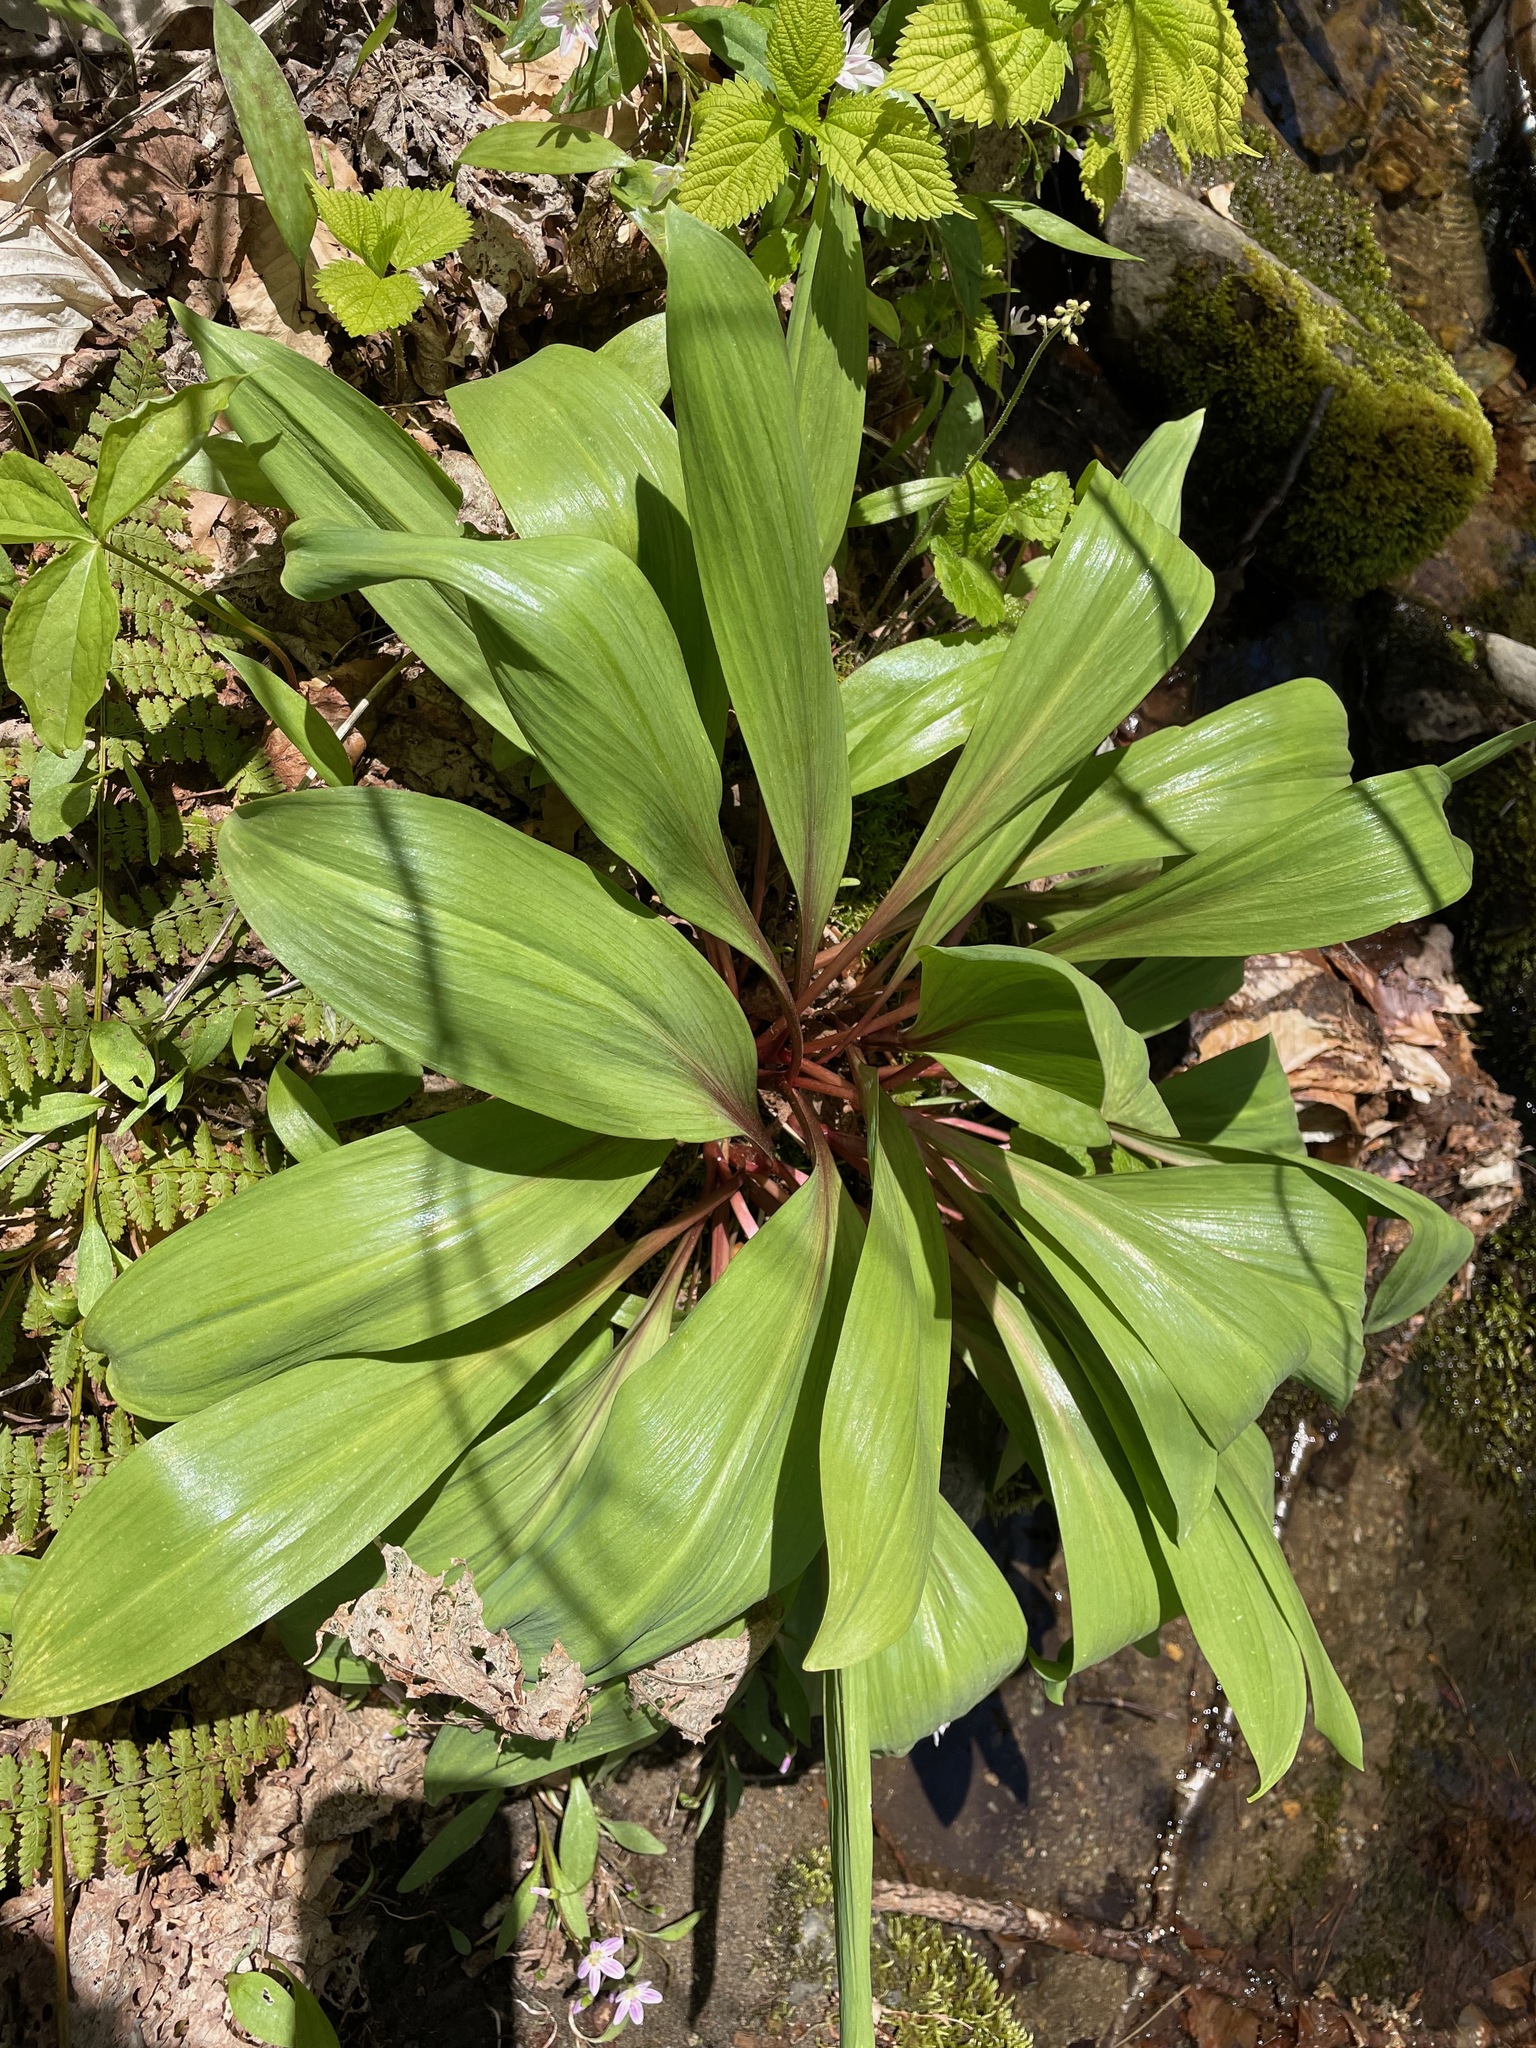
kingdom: Plantae
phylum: Tracheophyta
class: Liliopsida
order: Asparagales
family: Amaryllidaceae
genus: Allium
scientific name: Allium tricoccum
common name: Ramp
